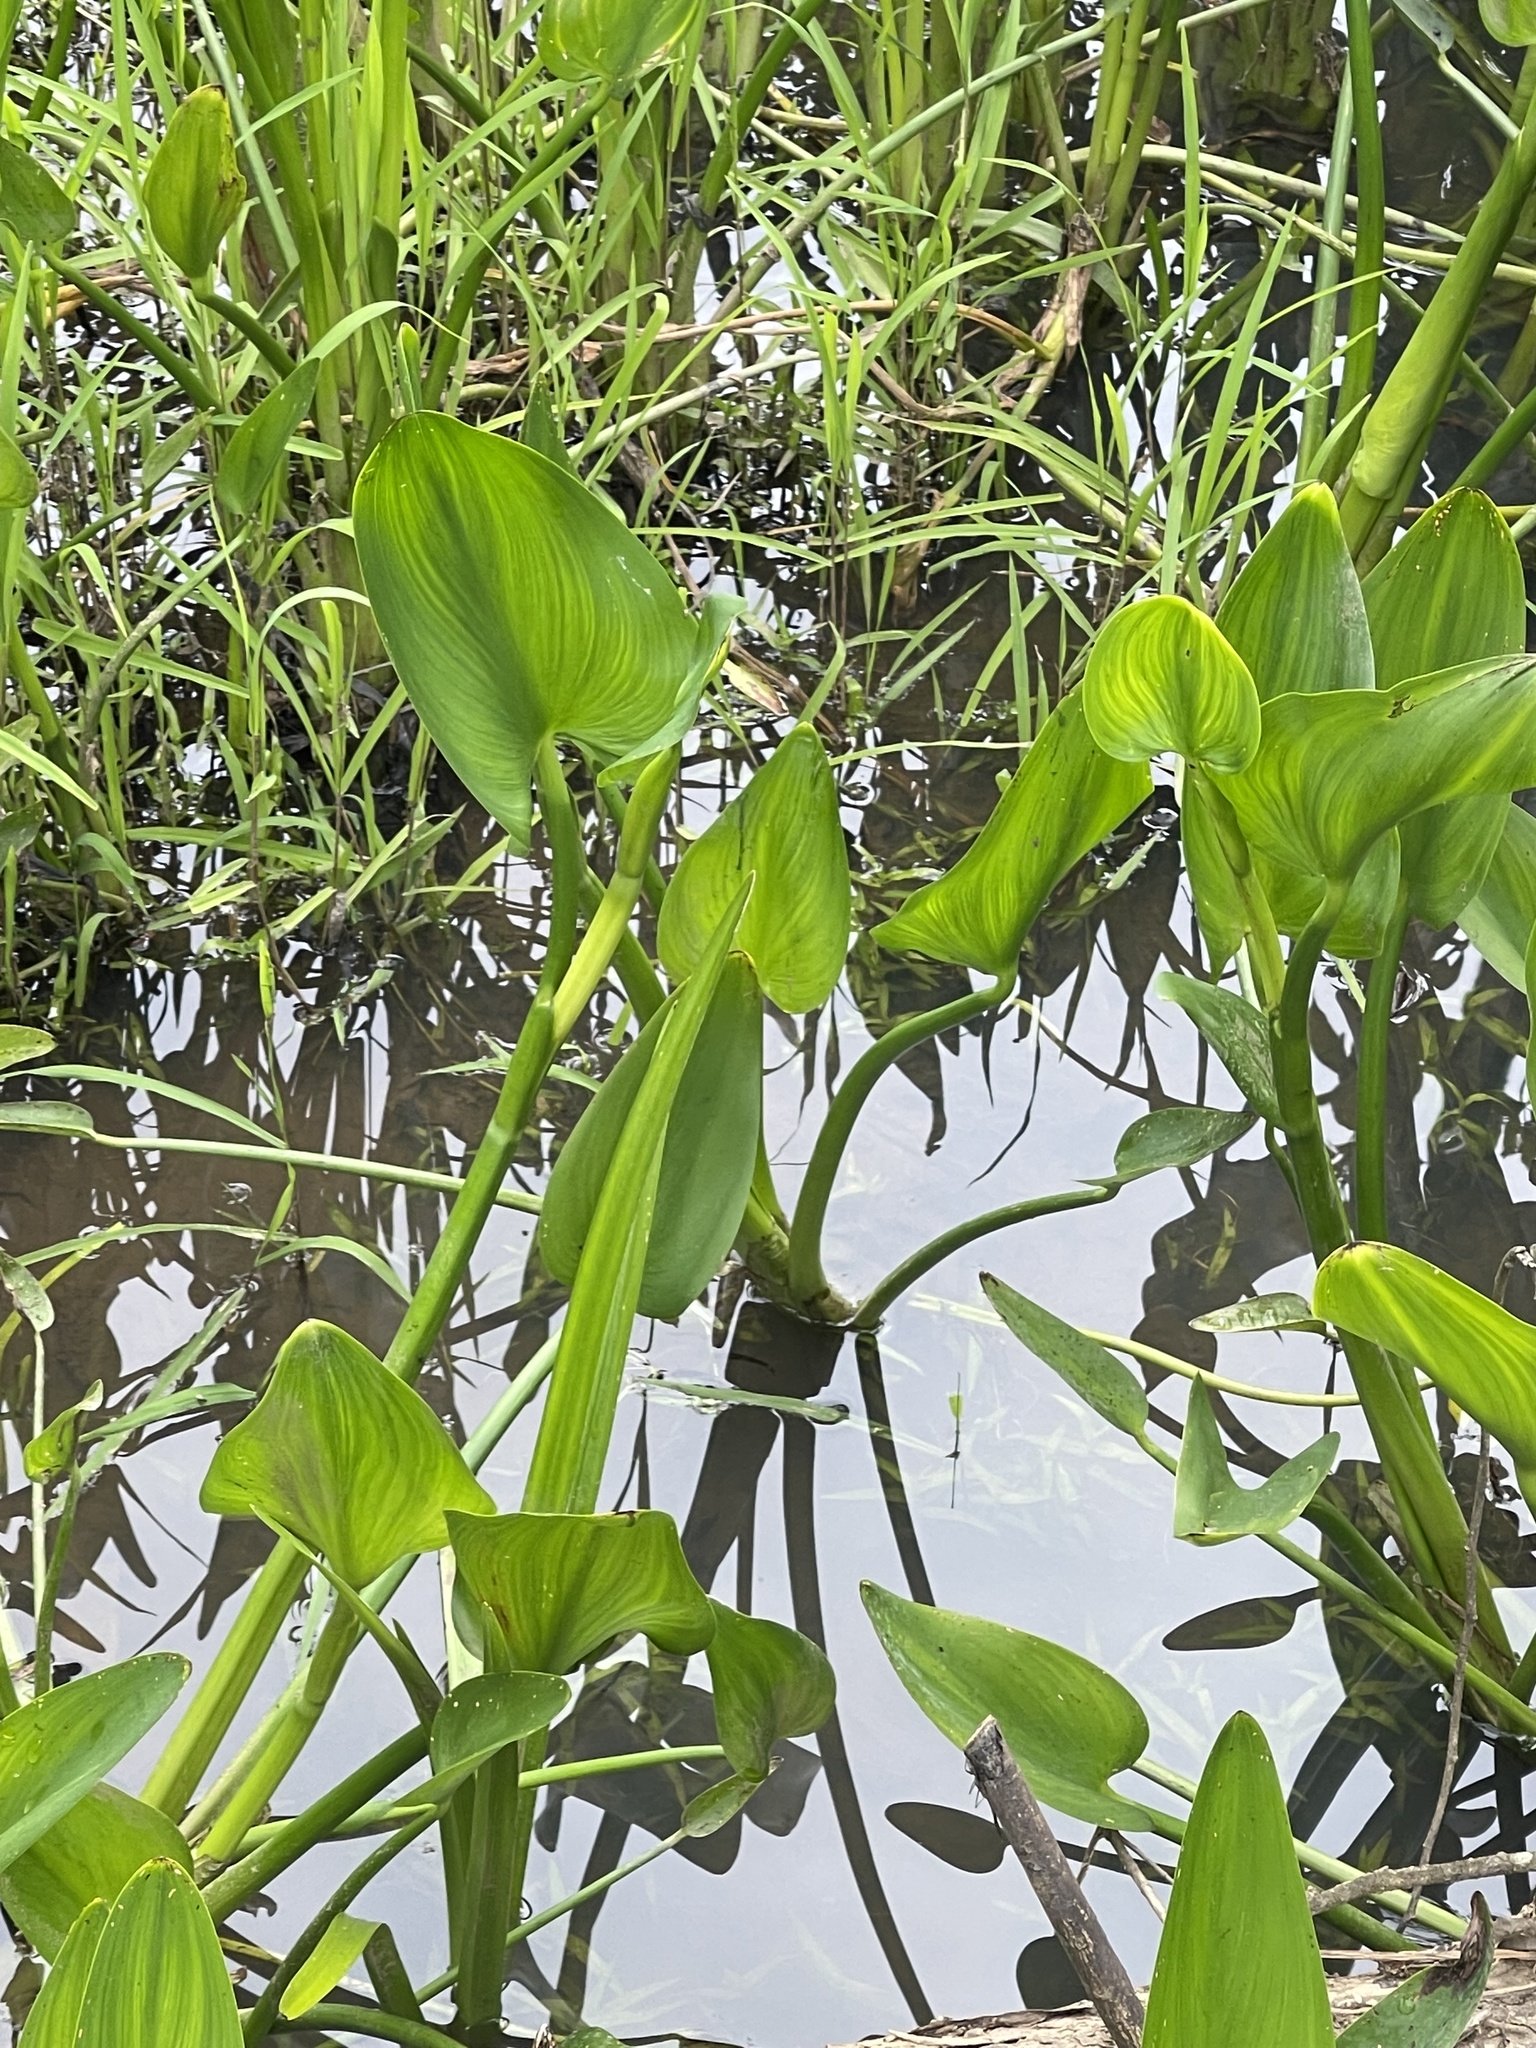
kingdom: Plantae
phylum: Tracheophyta
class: Liliopsida
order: Commelinales
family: Pontederiaceae
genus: Pontederia
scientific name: Pontederia cordata
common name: Pickerelweed
